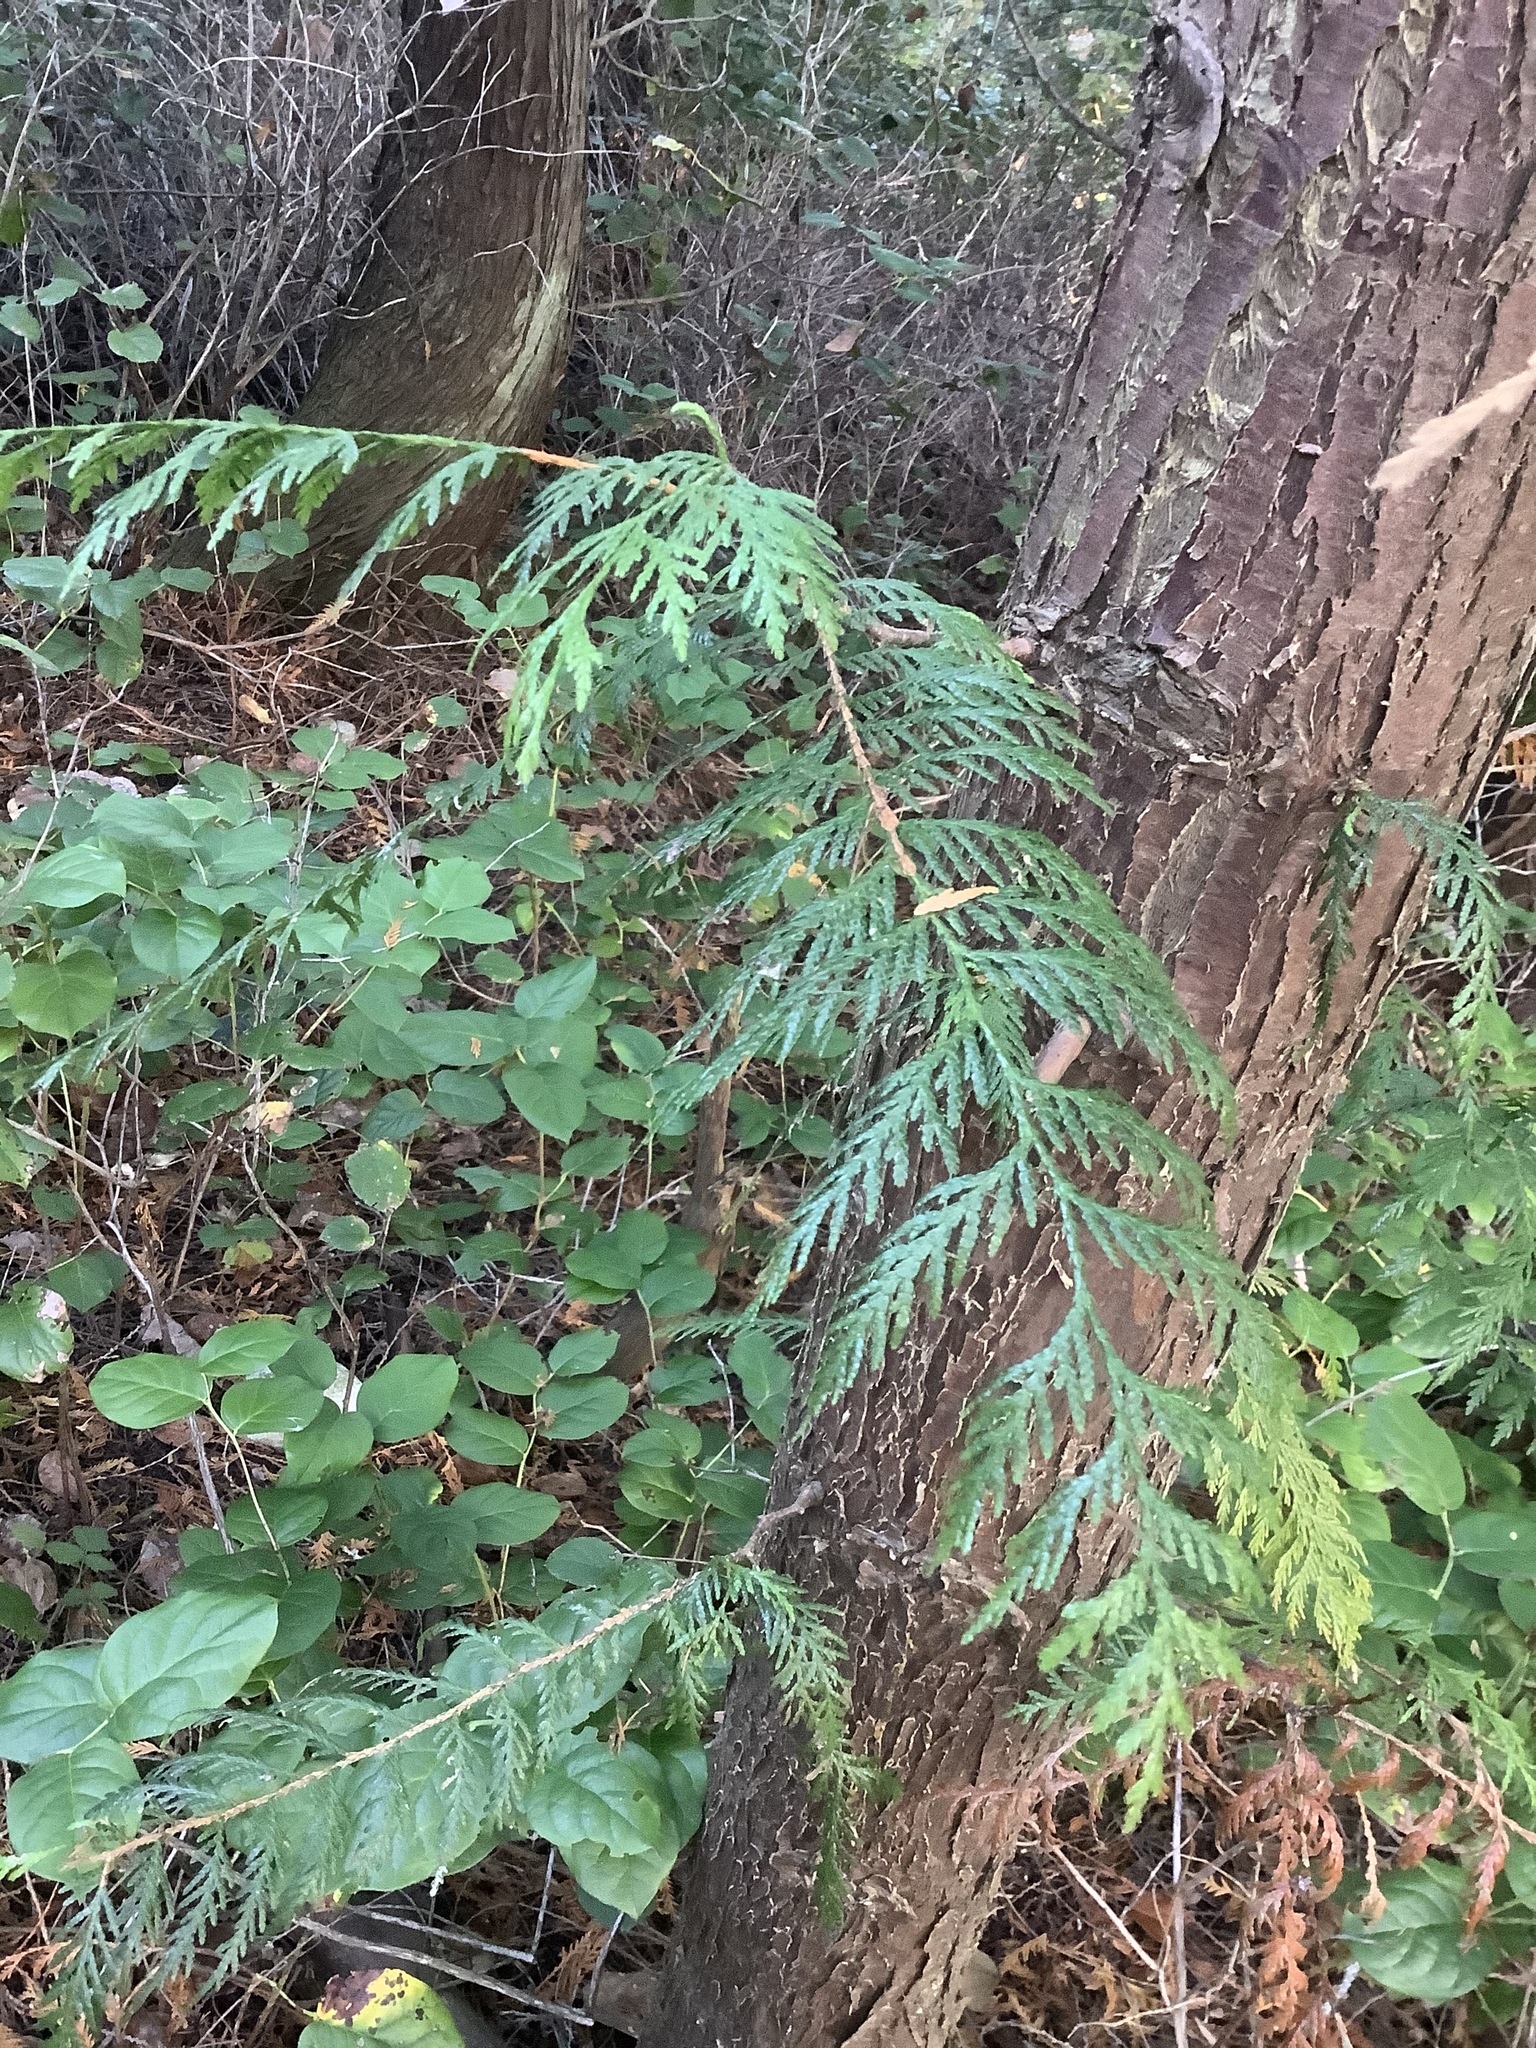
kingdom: Plantae
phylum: Tracheophyta
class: Pinopsida
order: Pinales
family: Cupressaceae
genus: Thuja
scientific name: Thuja plicata
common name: Western red-cedar
